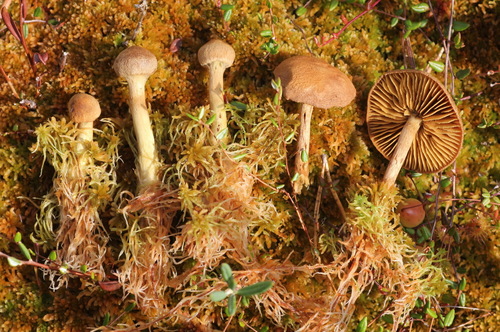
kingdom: Fungi
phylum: Basidiomycota
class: Agaricomycetes
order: Agaricales
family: Cortinariaceae
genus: Cortinarius
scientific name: Cortinarius chrysolitus
